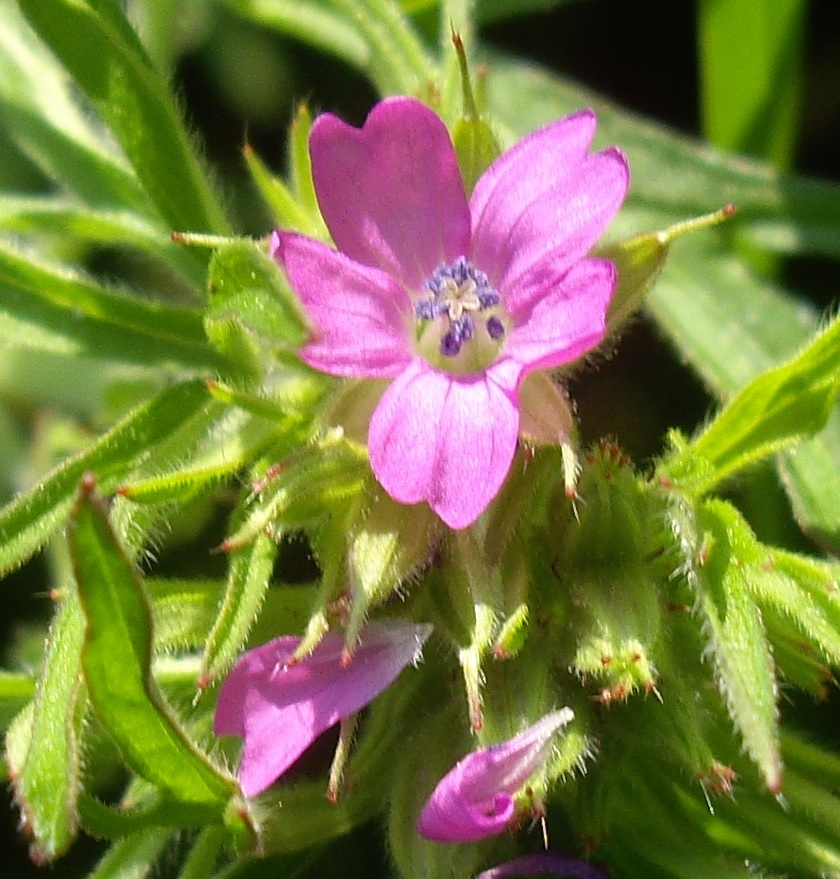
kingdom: Plantae
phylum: Tracheophyta
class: Magnoliopsida
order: Geraniales
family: Geraniaceae
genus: Geranium
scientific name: Geranium dissectum
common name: Cut-leaved crane's-bill
